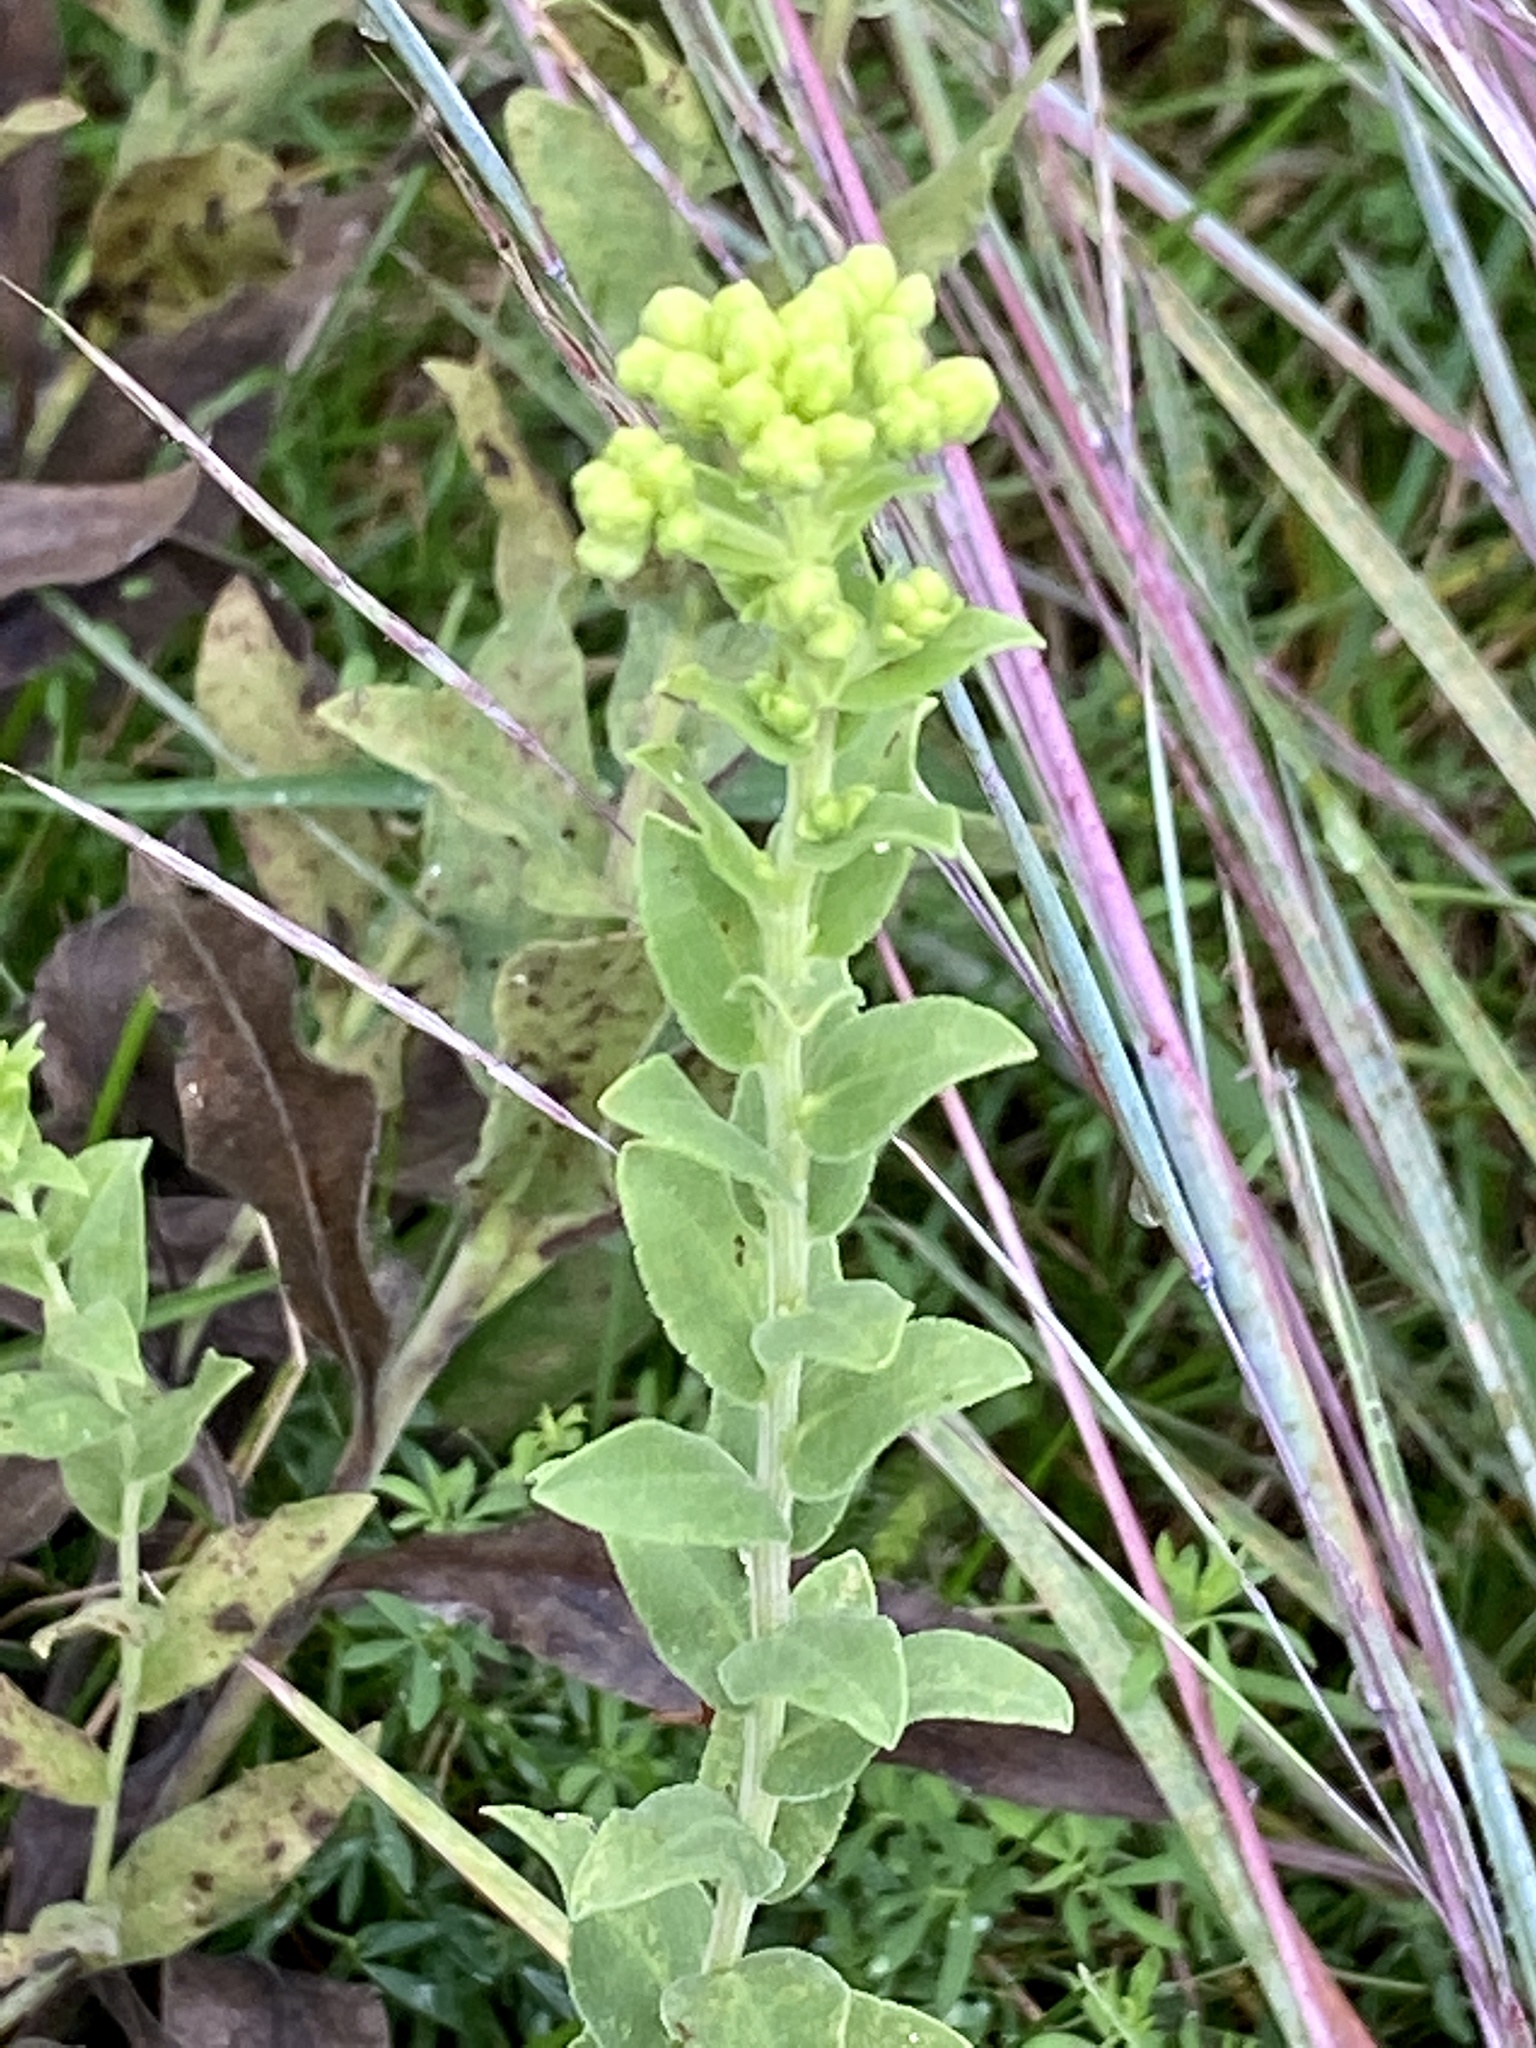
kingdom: Plantae
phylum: Tracheophyta
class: Magnoliopsida
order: Asterales
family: Asteraceae
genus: Solidago
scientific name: Solidago rigida
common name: Rigid goldenrod
